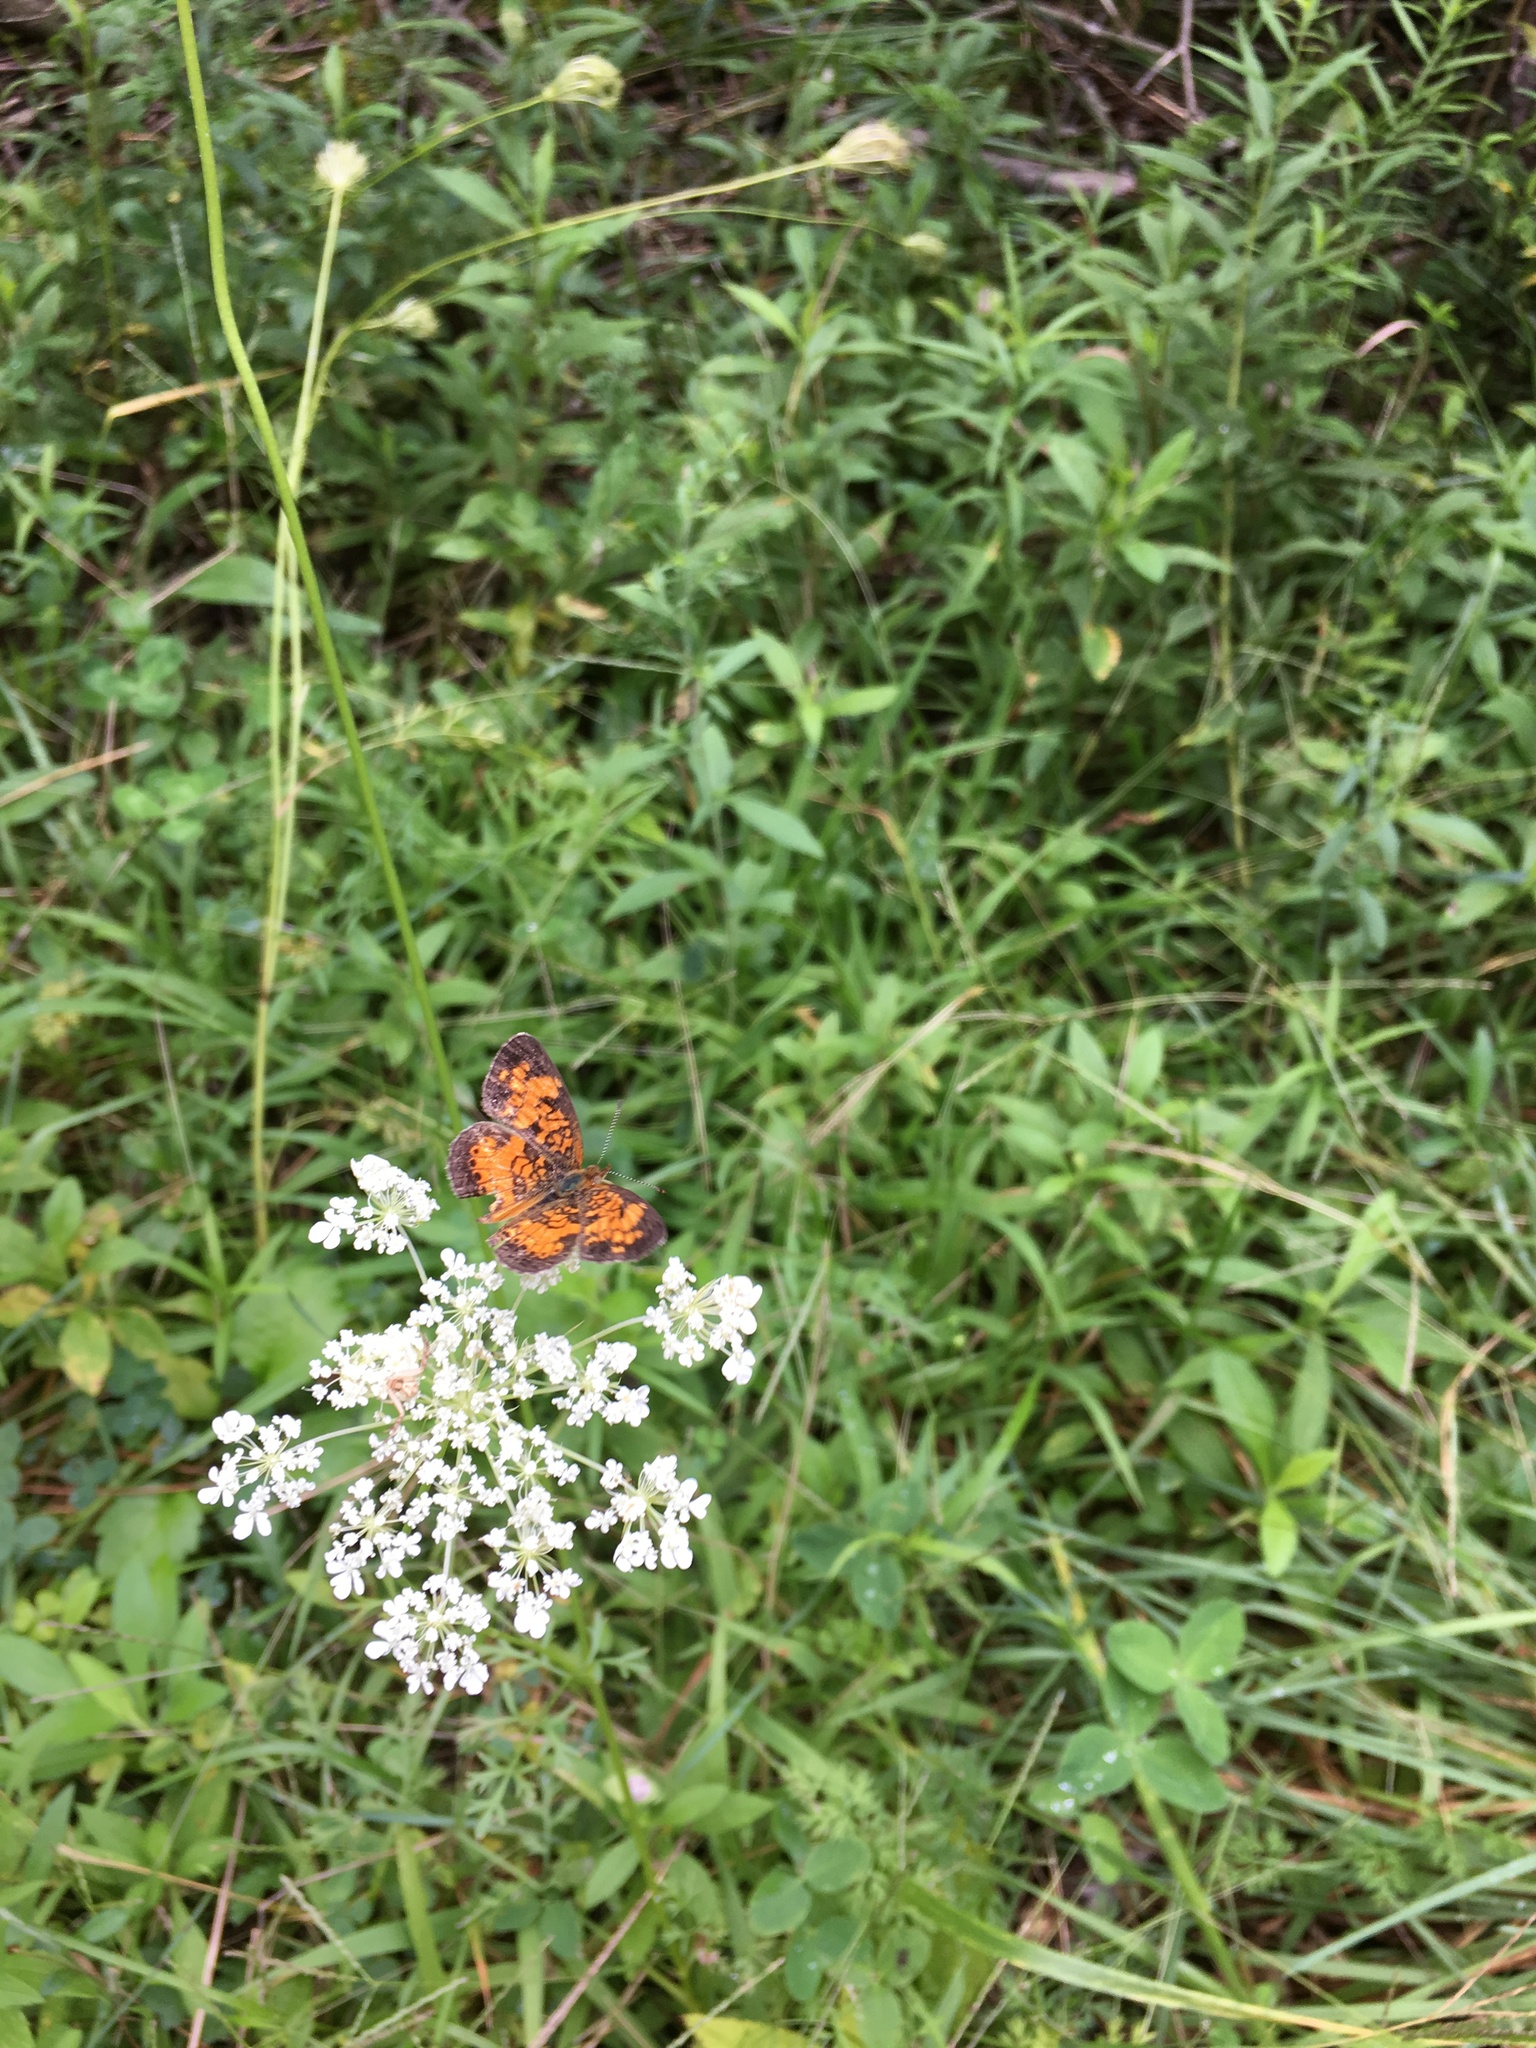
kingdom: Animalia
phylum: Arthropoda
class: Insecta
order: Lepidoptera
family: Nymphalidae
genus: Phyciodes
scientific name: Phyciodes tharos
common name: Pearl crescent
